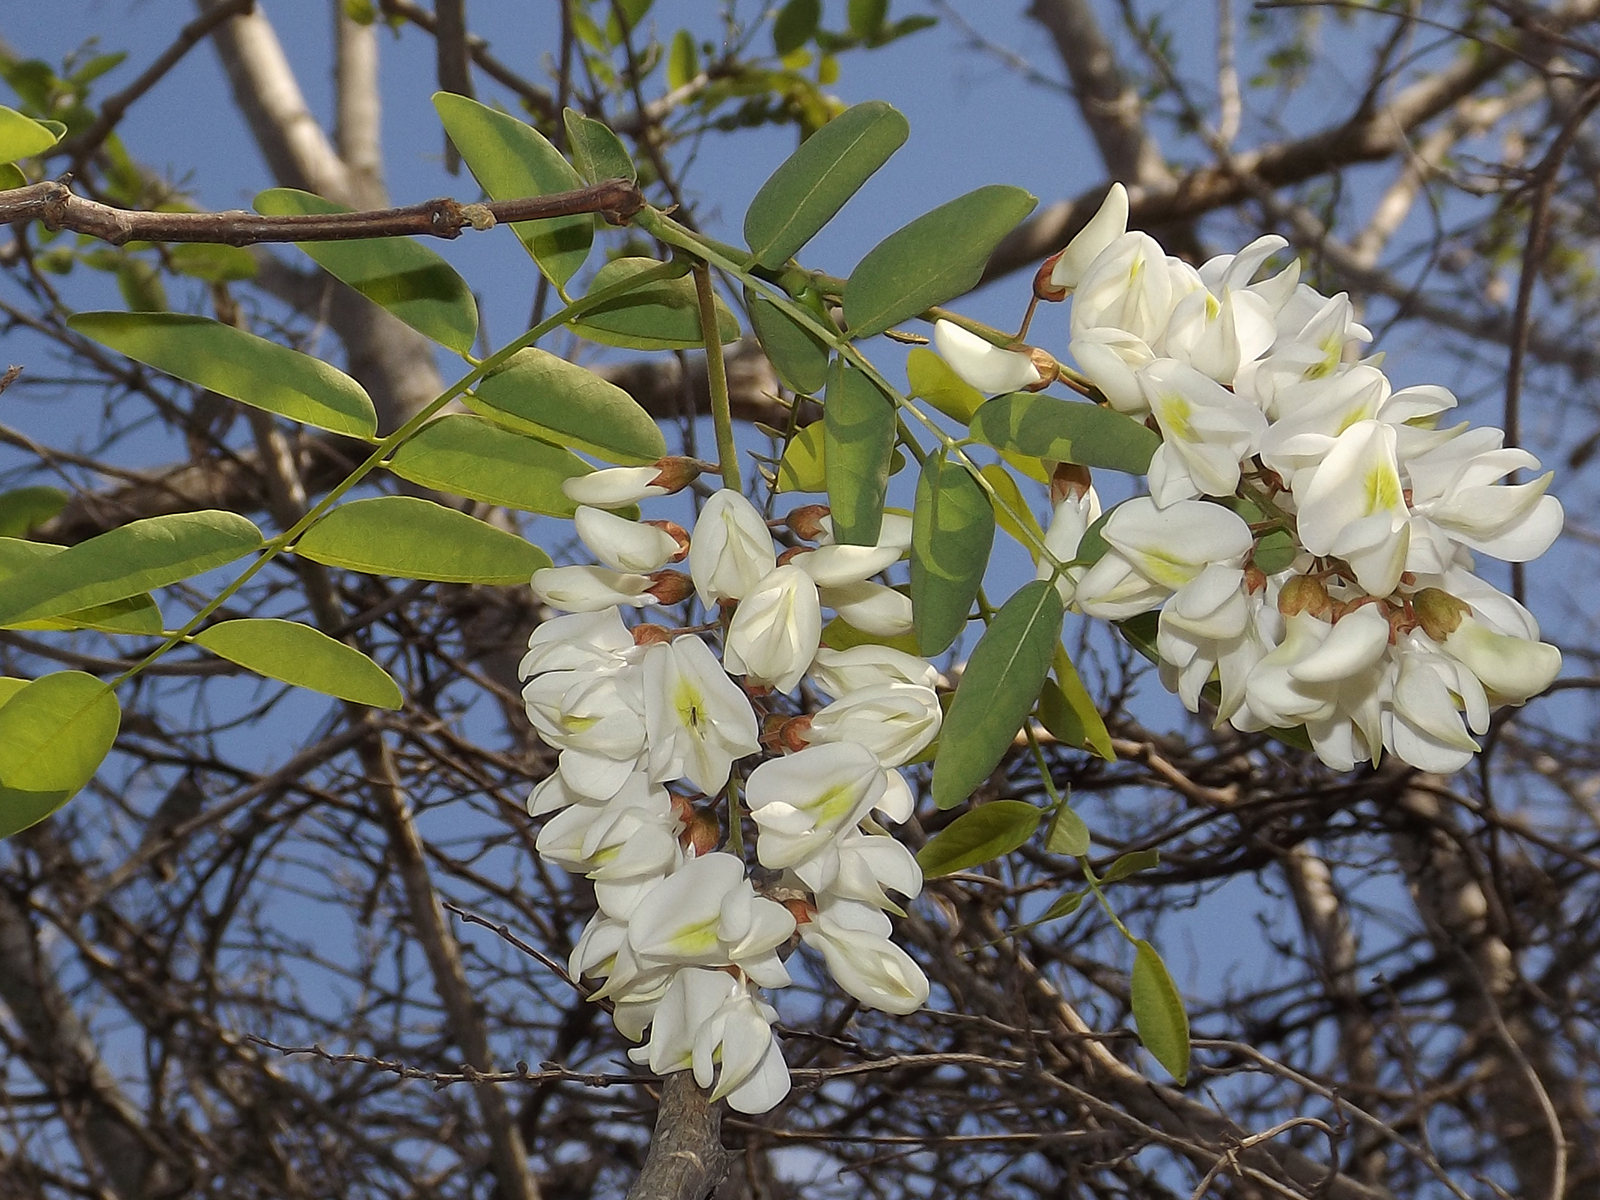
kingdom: Plantae
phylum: Tracheophyta
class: Magnoliopsida
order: Fabales
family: Fabaceae
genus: Robinia
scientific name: Robinia pseudoacacia
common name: Black locust
